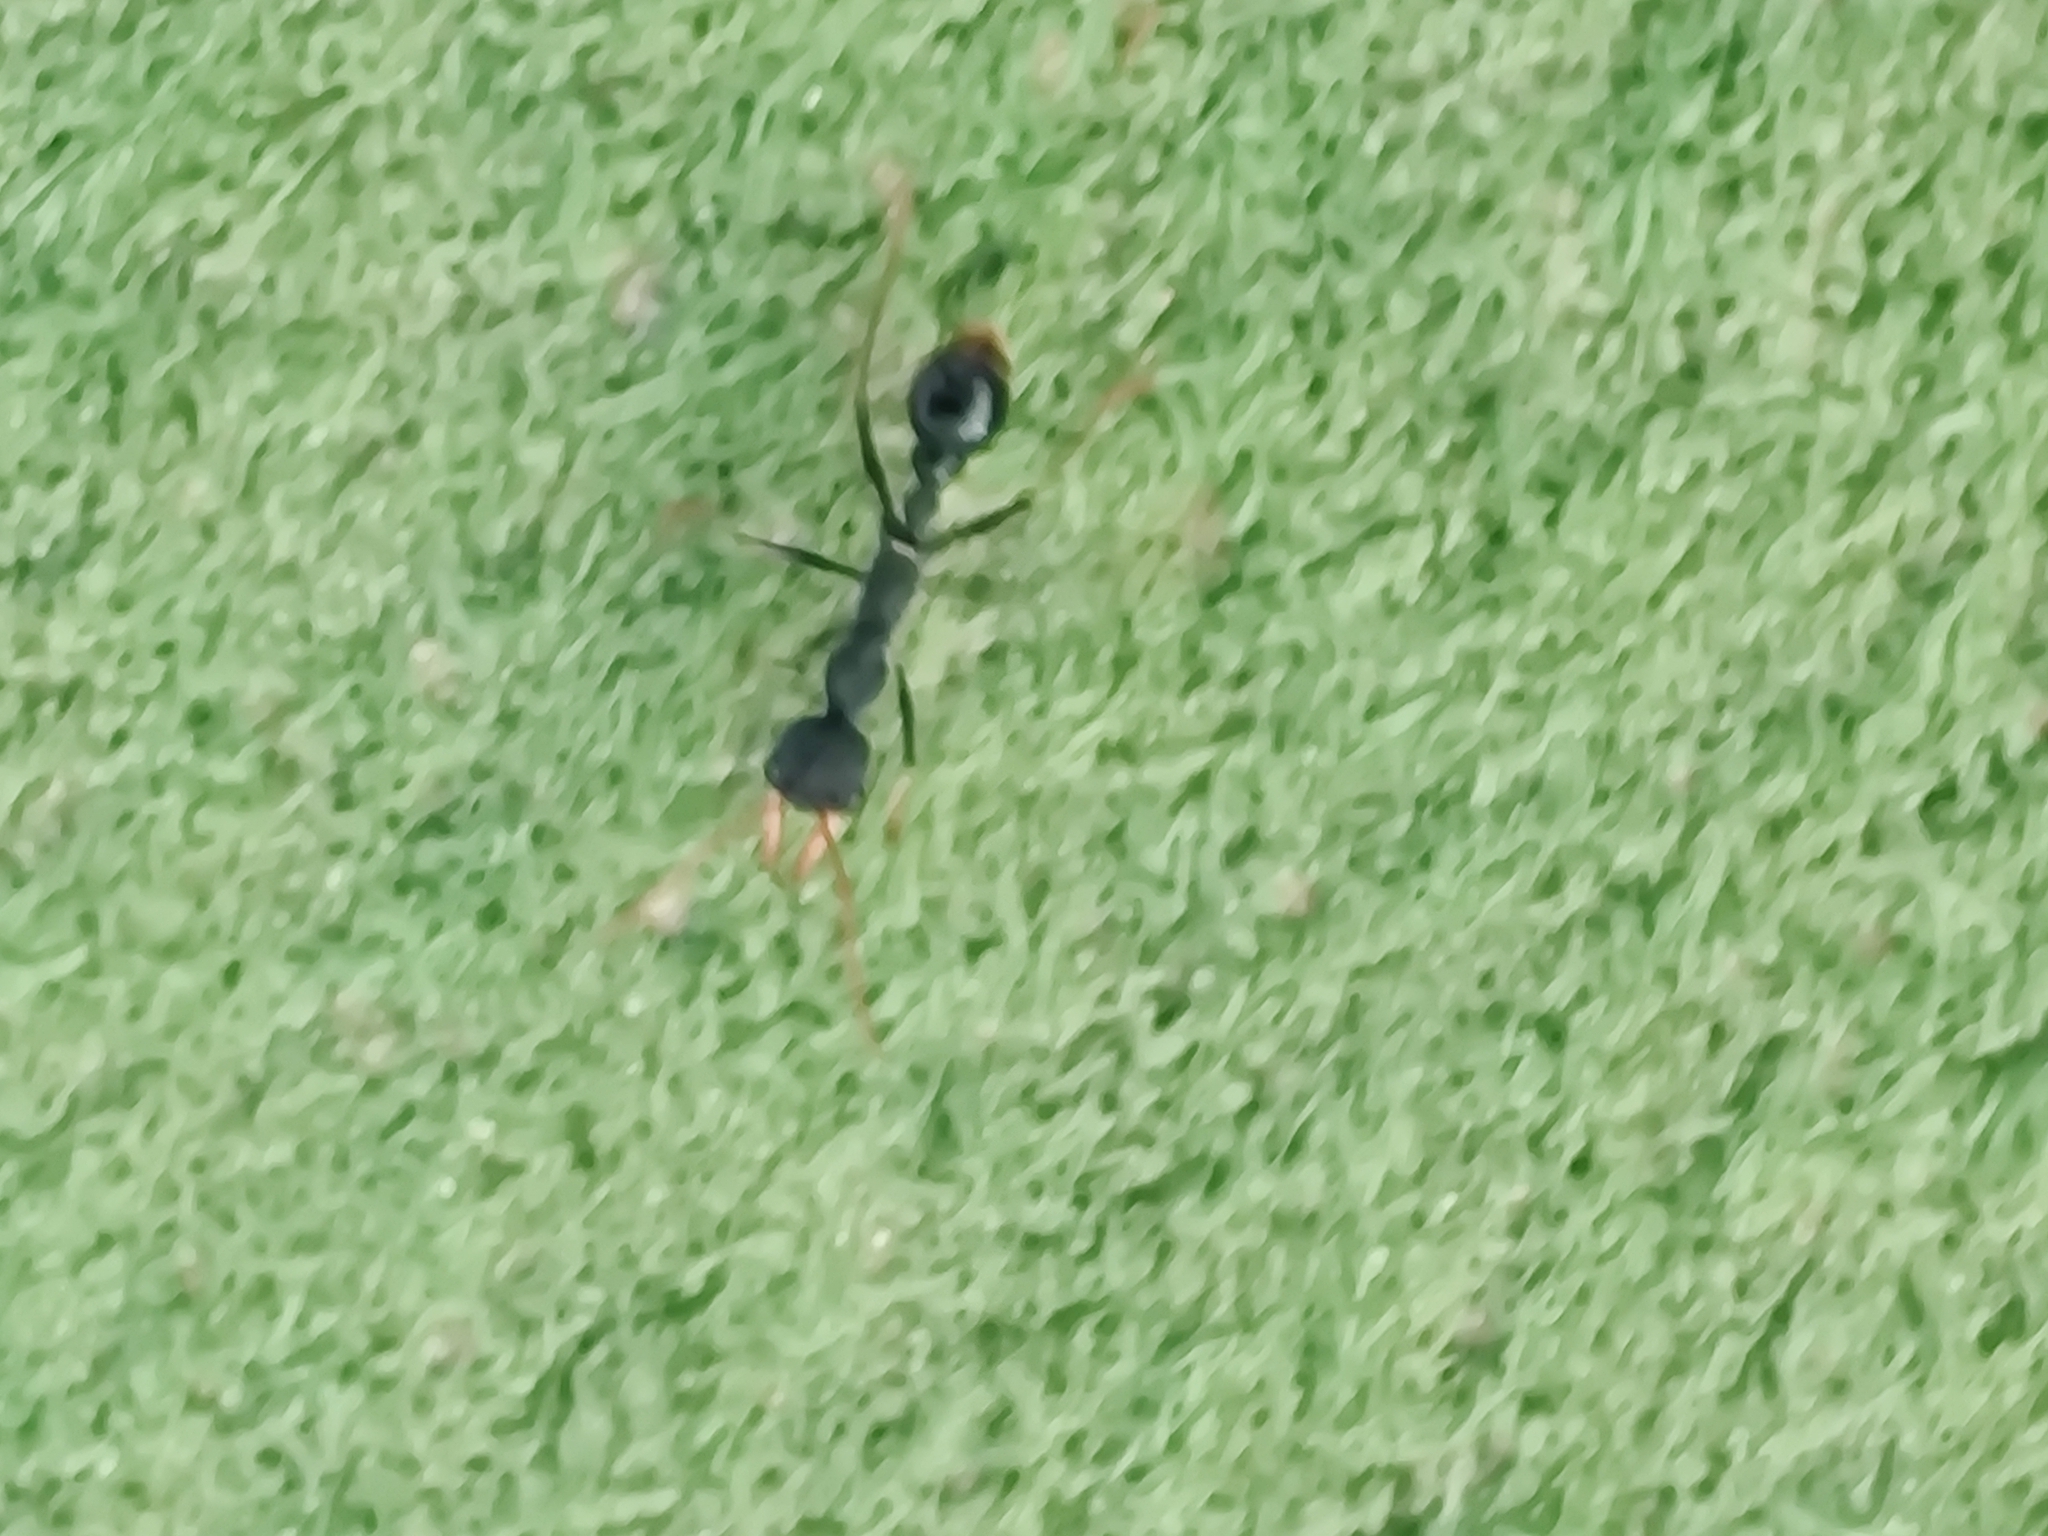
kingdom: Animalia
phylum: Arthropoda
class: Insecta
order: Hymenoptera
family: Formicidae
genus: Myrmecia
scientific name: Myrmecia tarsata
